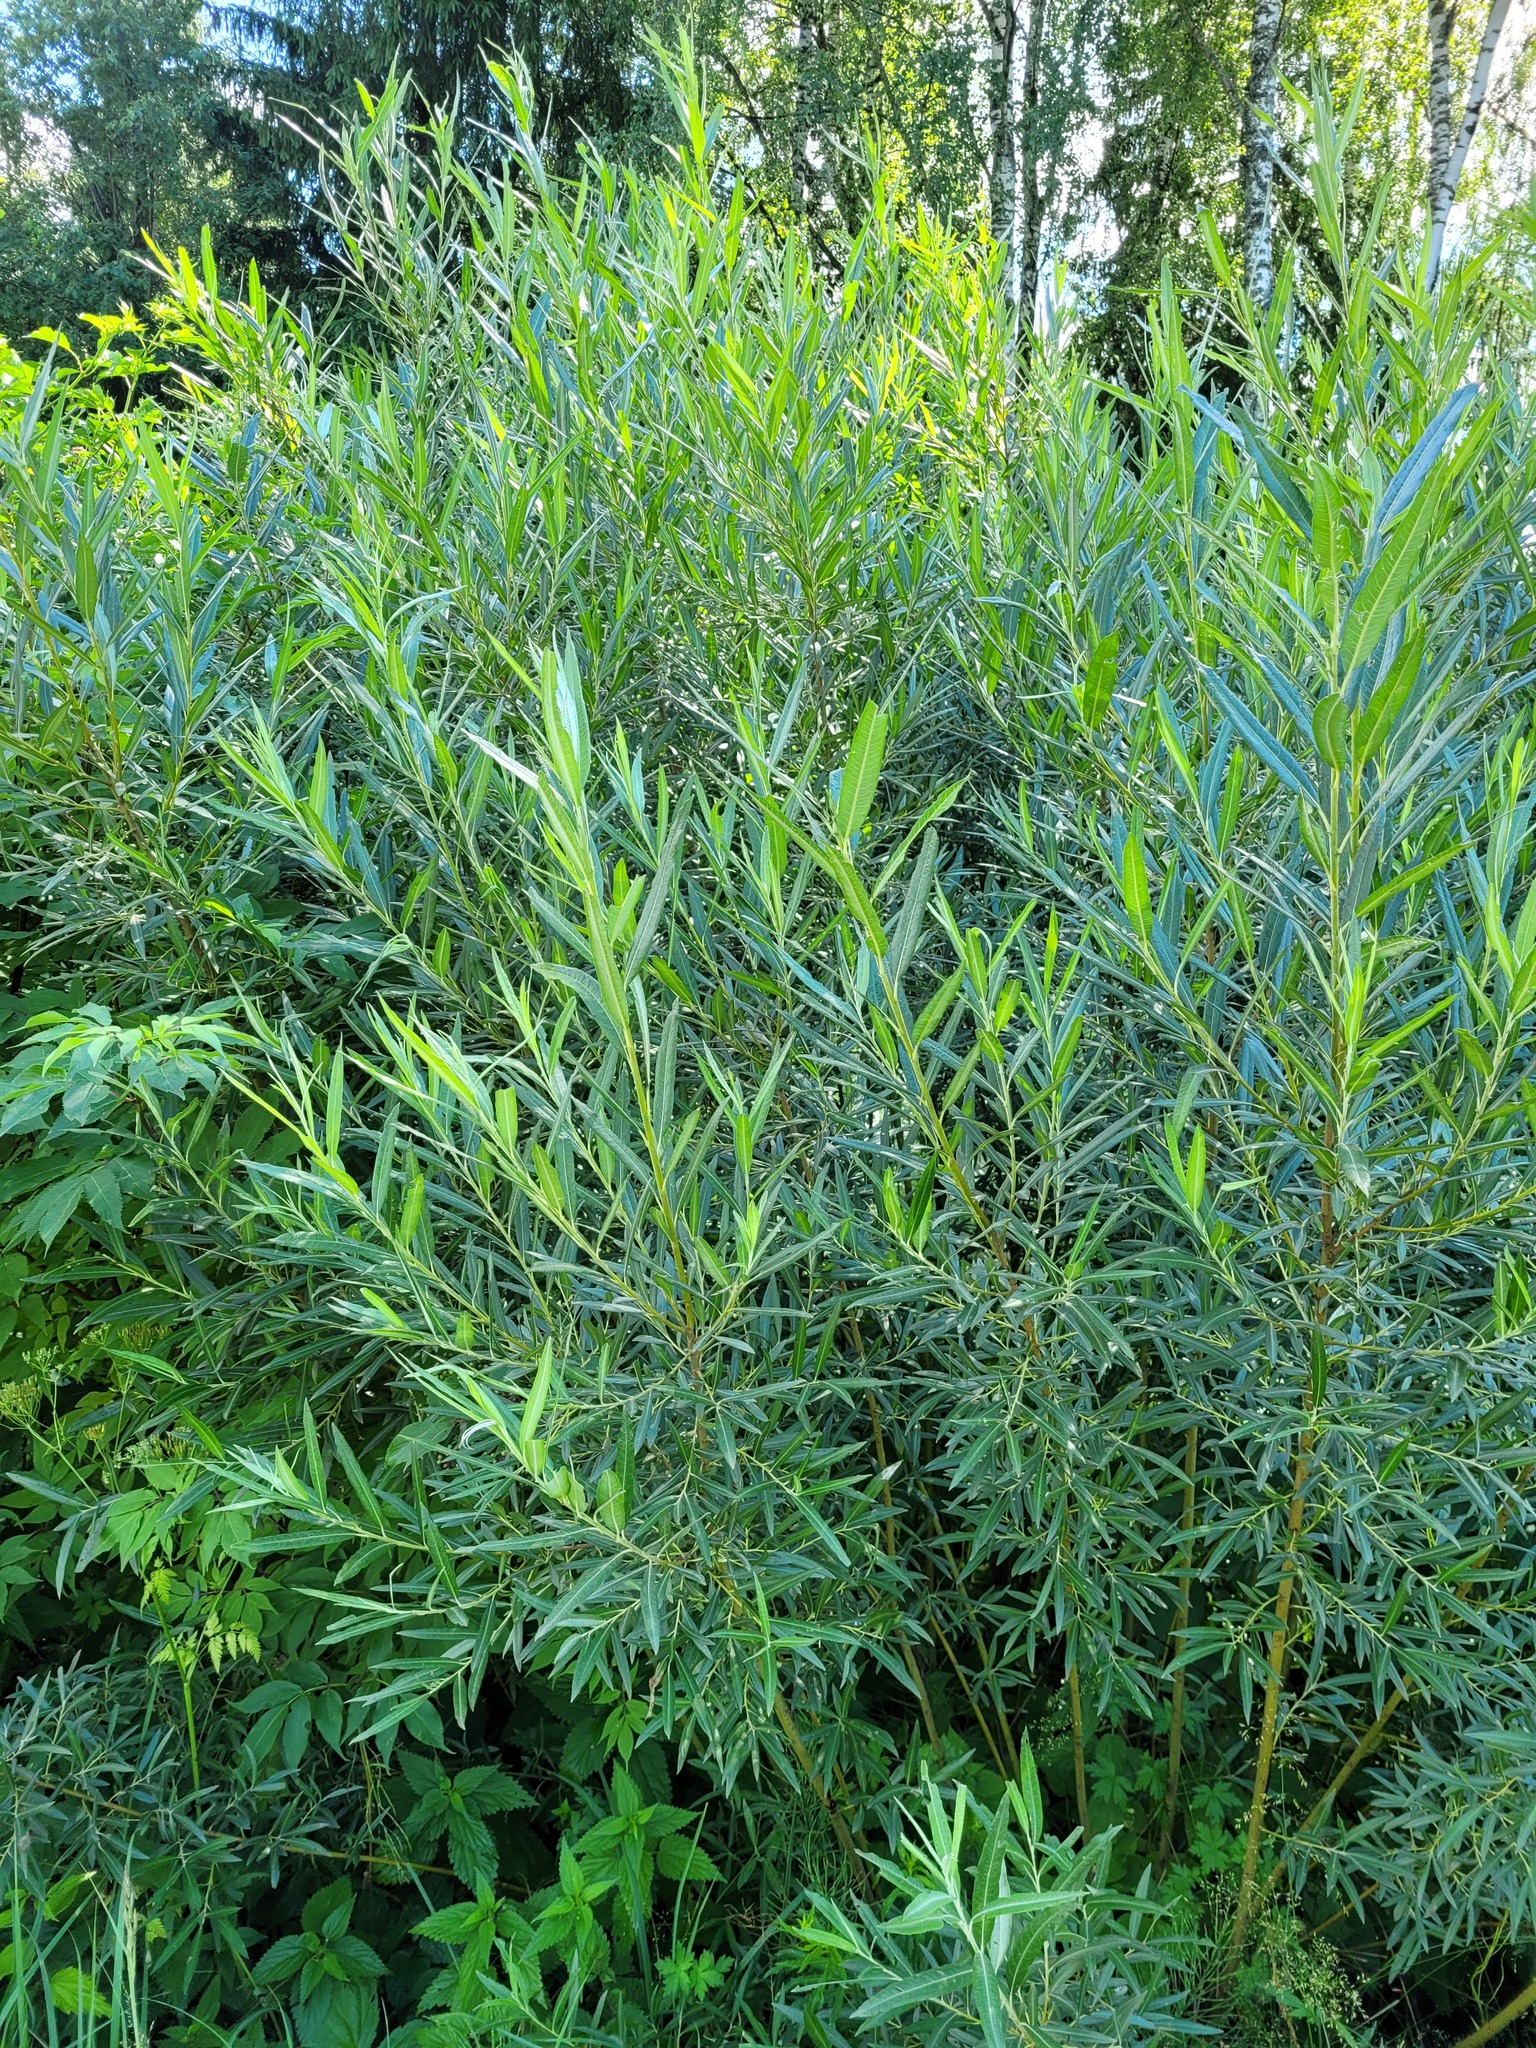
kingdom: Plantae
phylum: Tracheophyta
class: Magnoliopsida
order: Malpighiales
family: Salicaceae
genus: Salix
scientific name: Salix viminalis
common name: Osier
